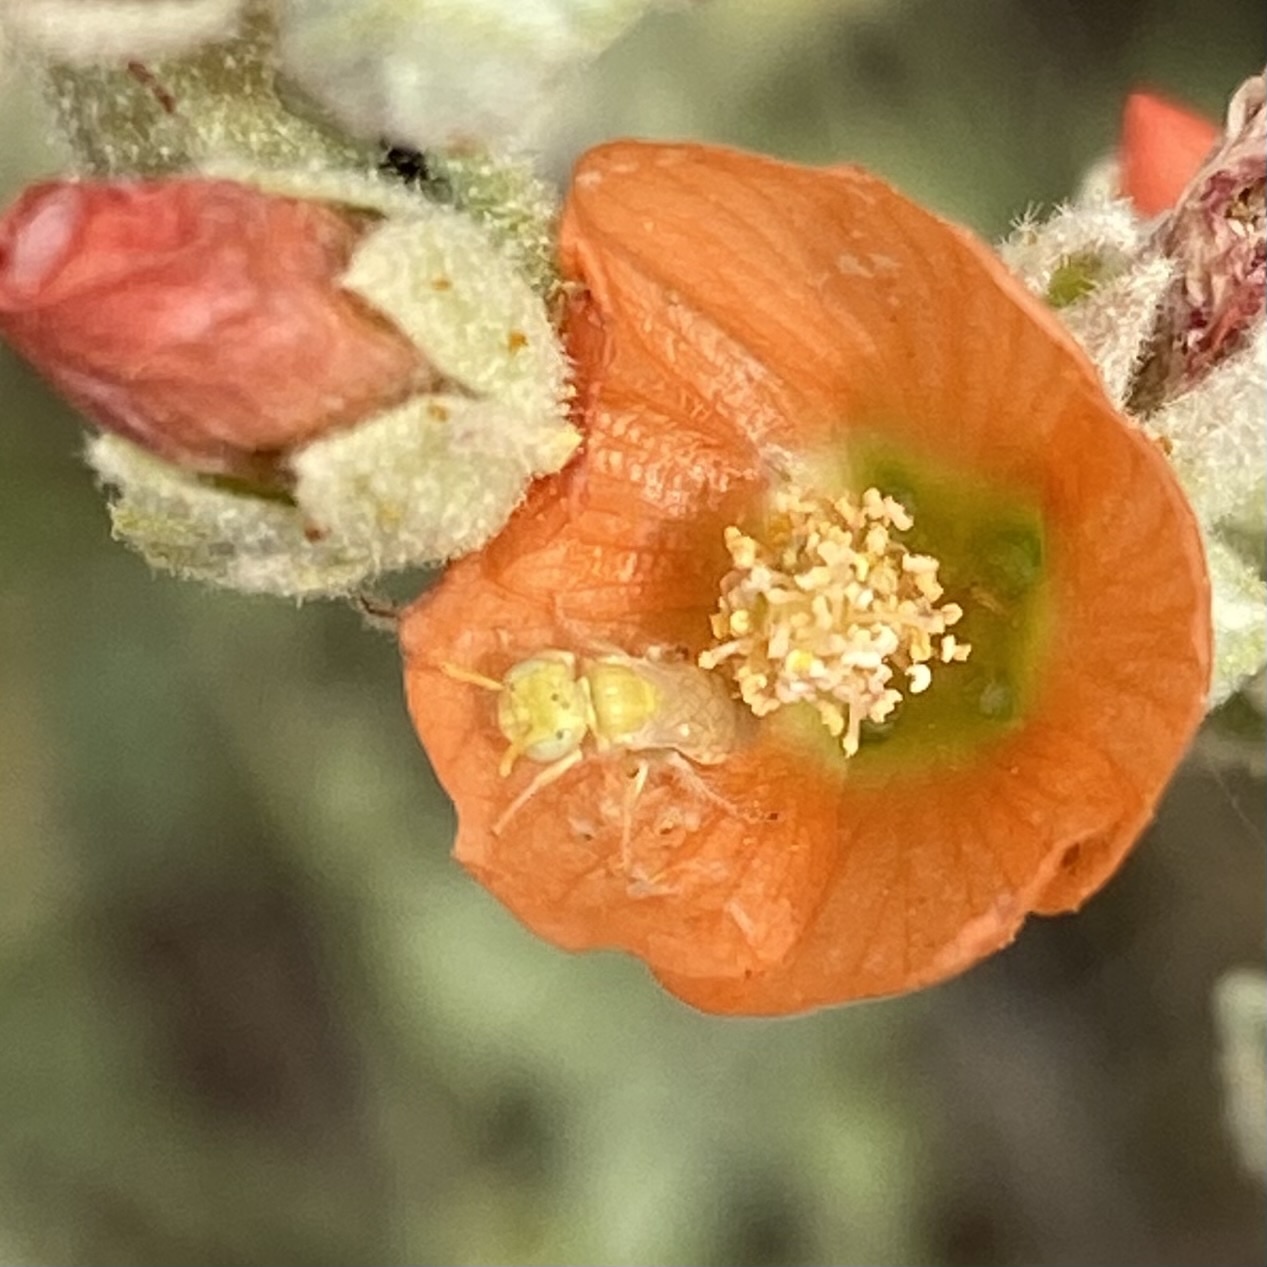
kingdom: Animalia
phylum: Arthropoda
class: Insecta
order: Hymenoptera
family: Andrenidae
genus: Perdita
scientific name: Perdita xanthochroa
